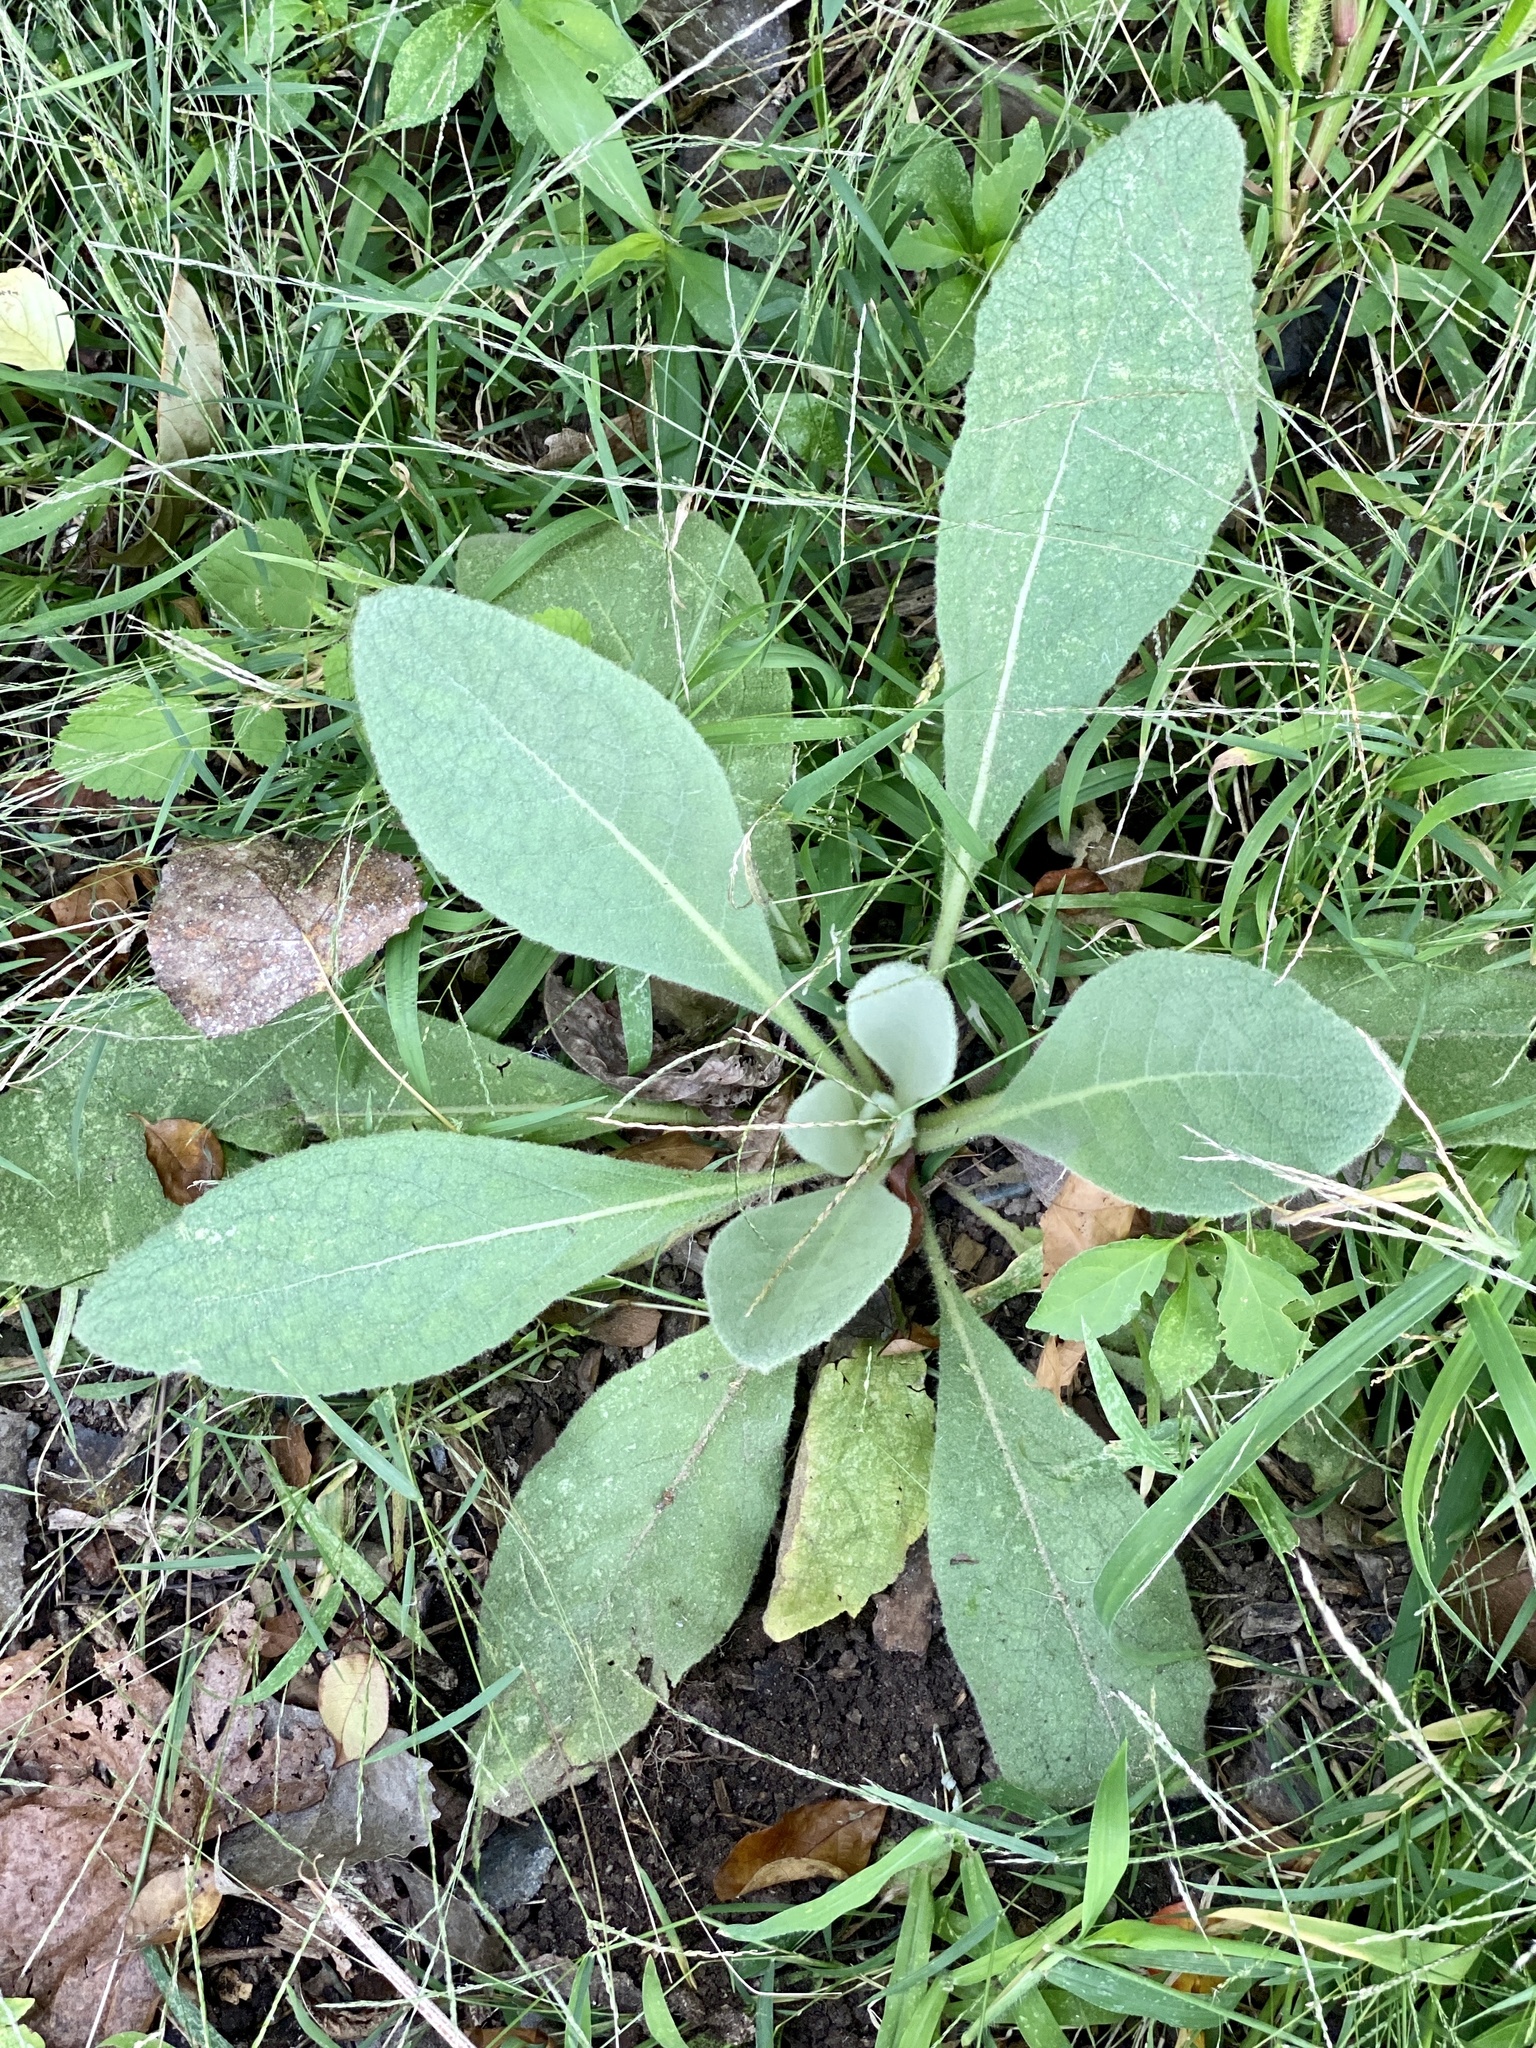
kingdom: Plantae
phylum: Tracheophyta
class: Magnoliopsida
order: Lamiales
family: Scrophulariaceae
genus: Verbascum
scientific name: Verbascum thapsus
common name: Common mullein
